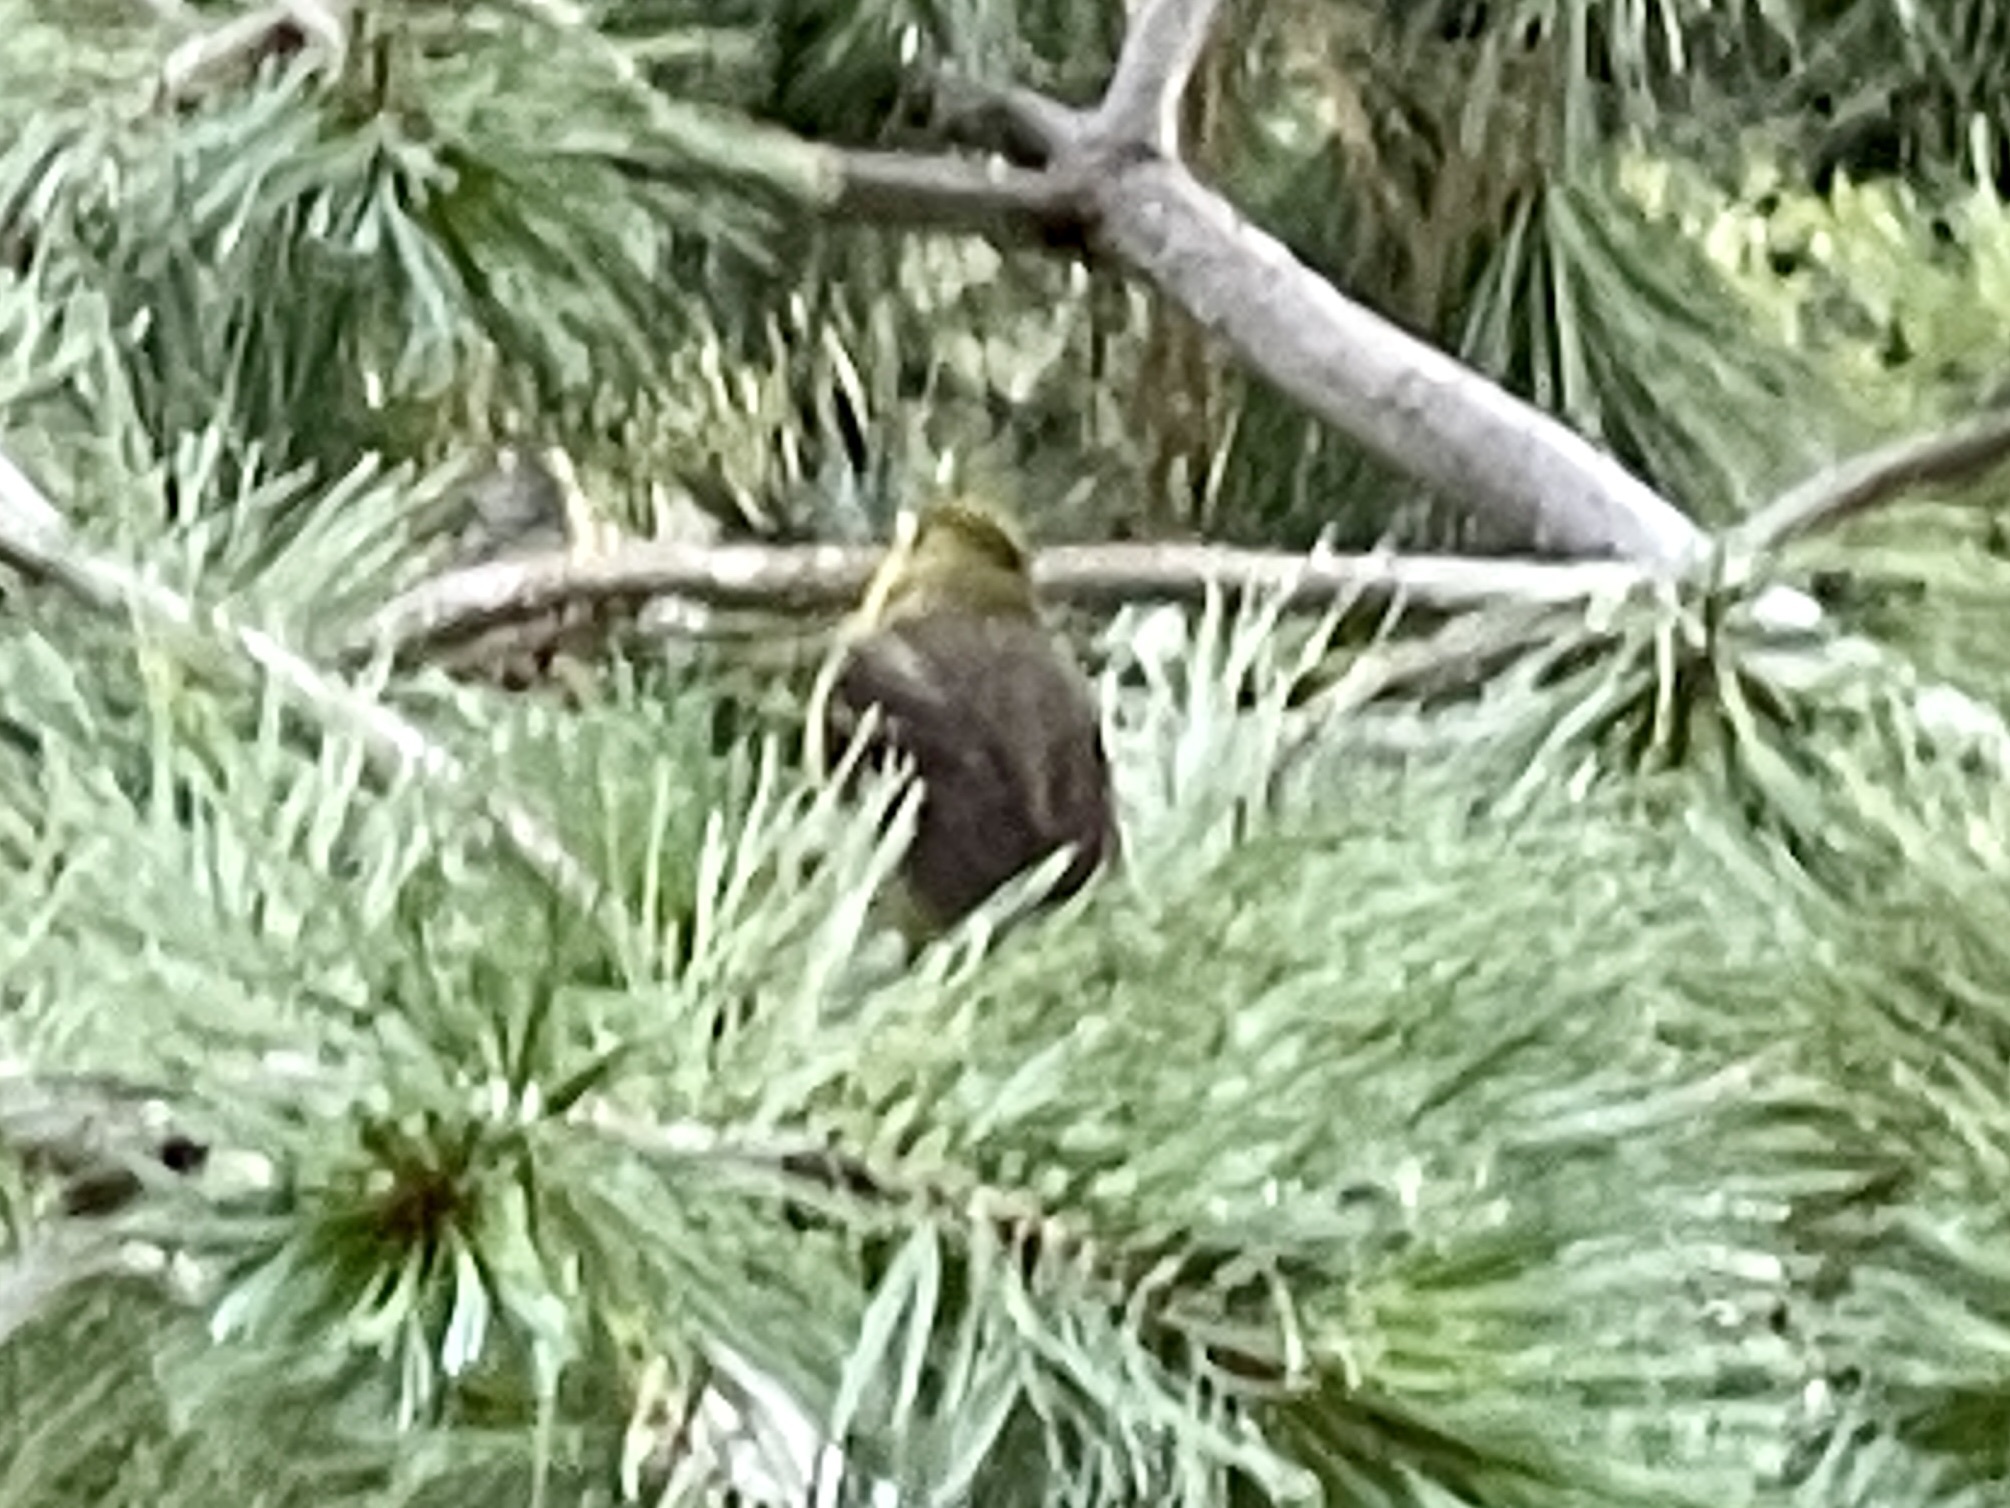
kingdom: Animalia
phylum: Chordata
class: Aves
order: Passeriformes
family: Cardinalidae
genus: Piranga
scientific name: Piranga ludoviciana
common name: Western tanager
